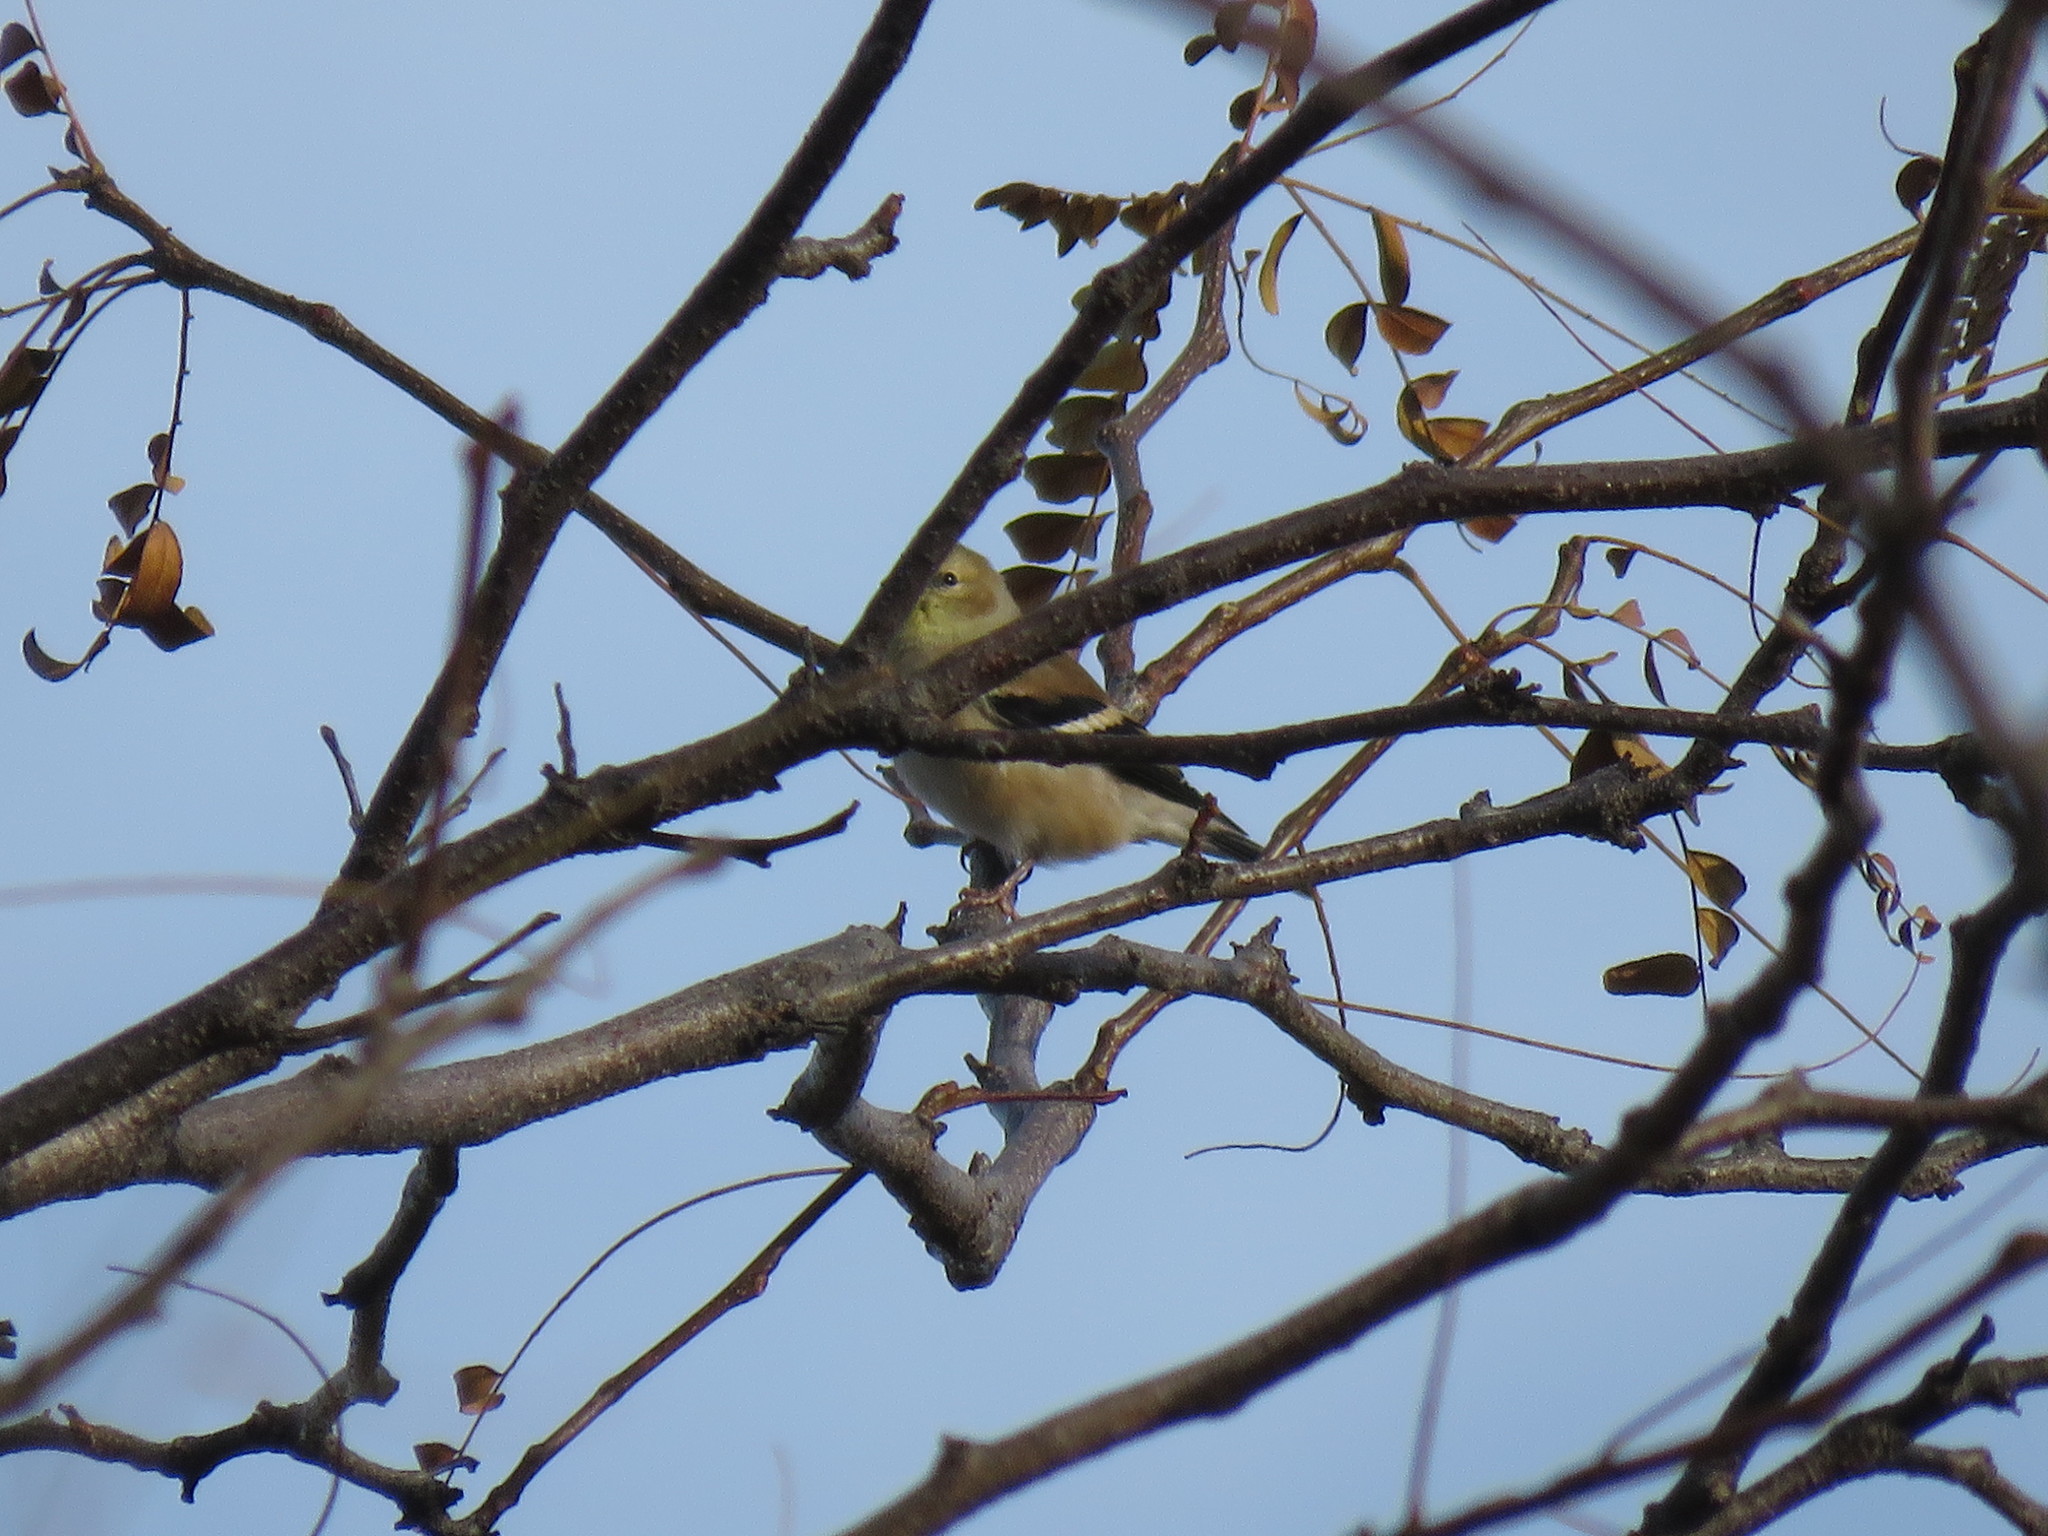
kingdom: Animalia
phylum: Chordata
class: Aves
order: Passeriformes
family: Fringillidae
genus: Spinus
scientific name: Spinus tristis
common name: American goldfinch
